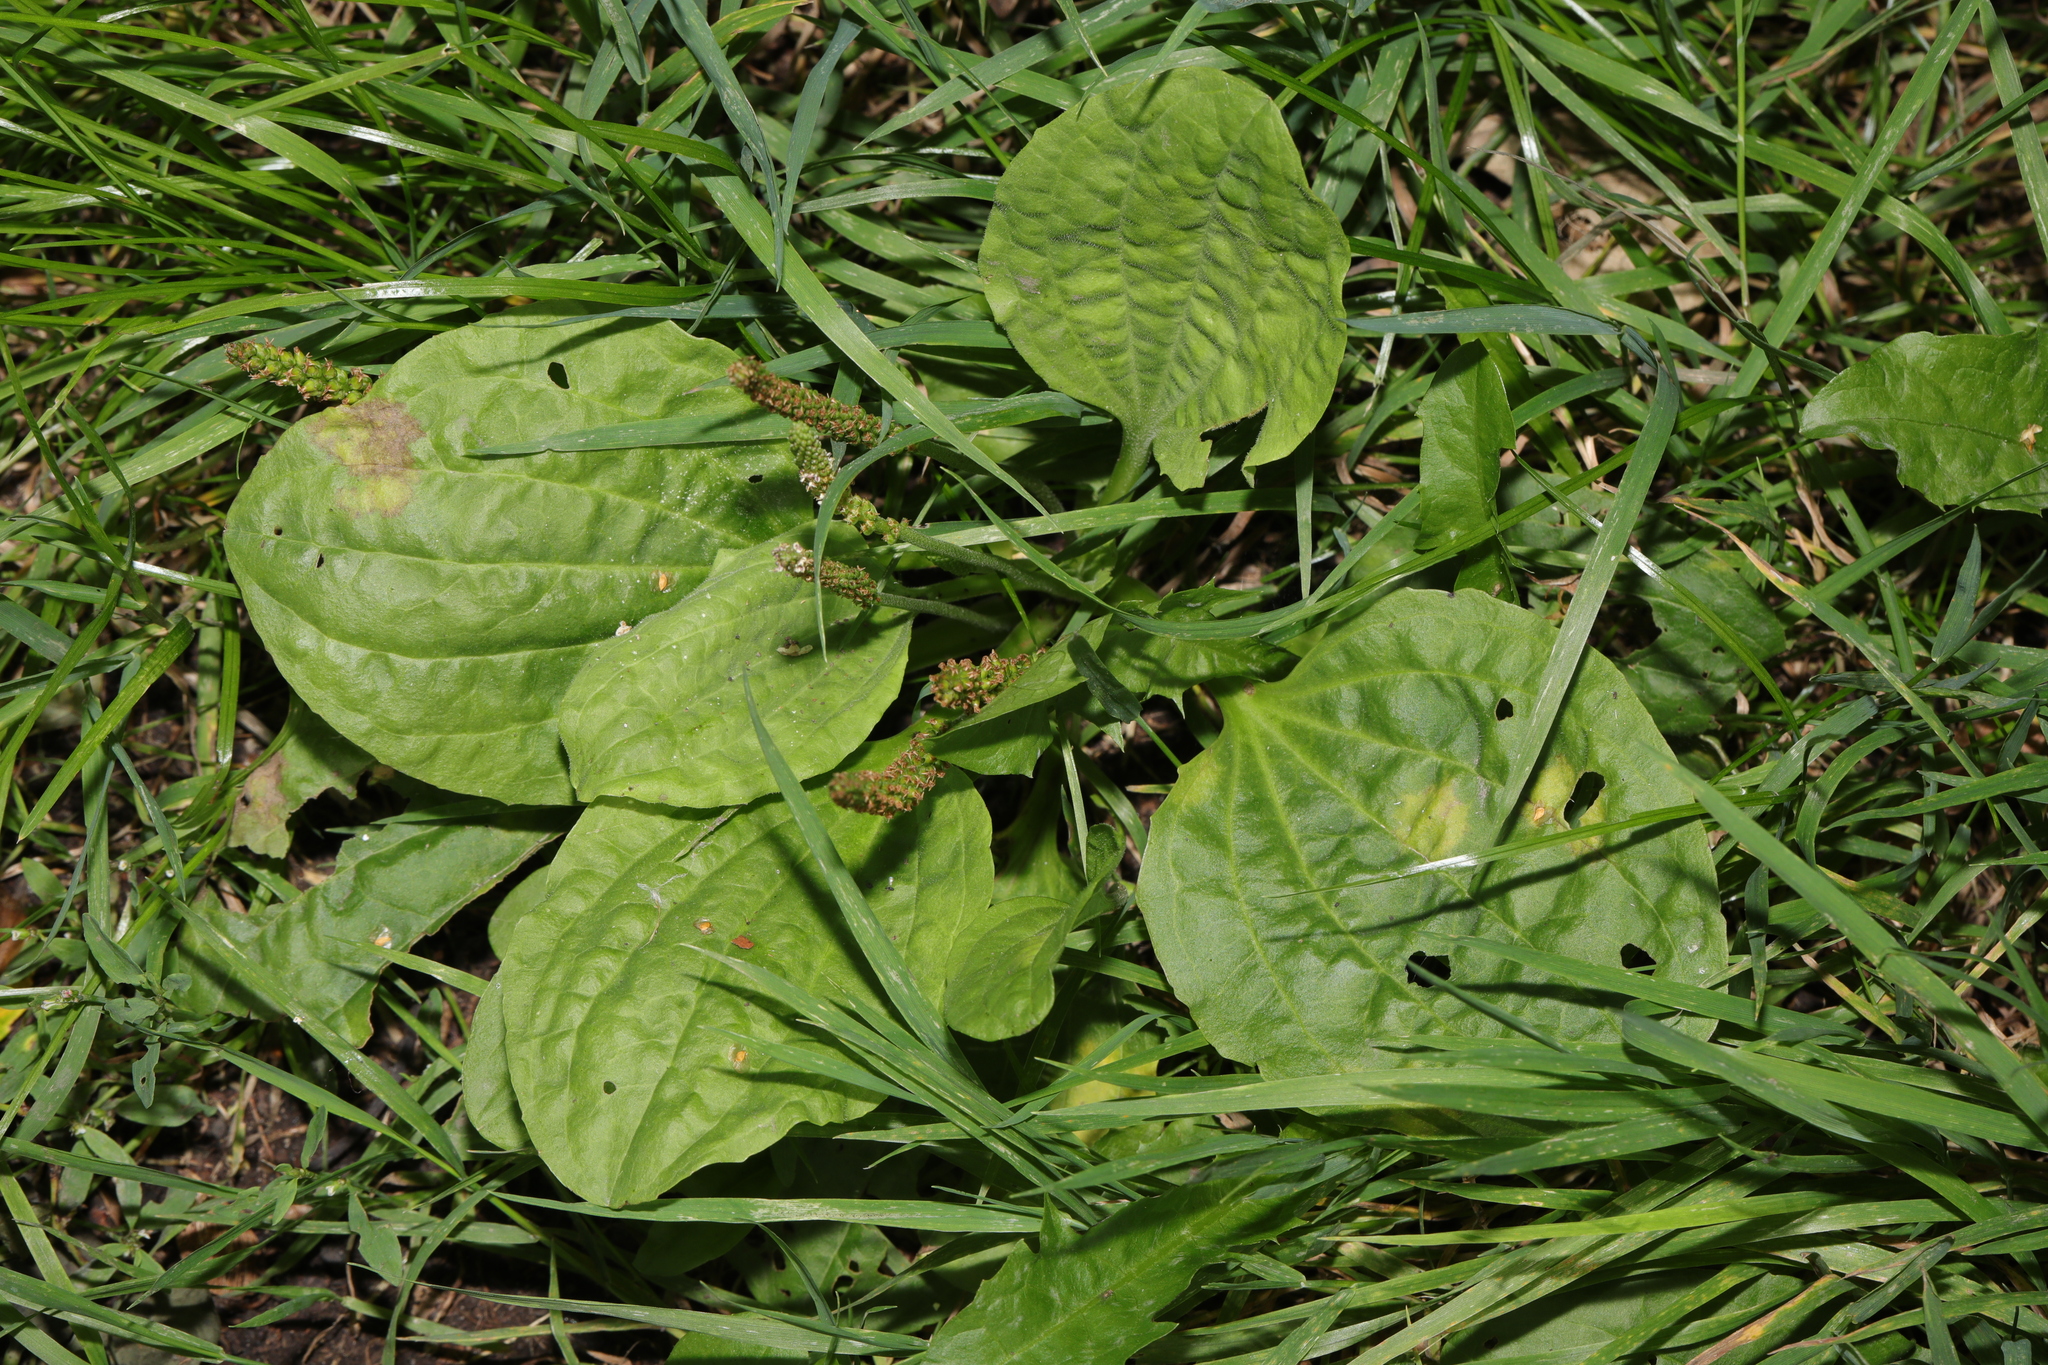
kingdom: Plantae
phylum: Tracheophyta
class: Magnoliopsida
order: Lamiales
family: Plantaginaceae
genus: Plantago
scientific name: Plantago major
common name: Common plantain
